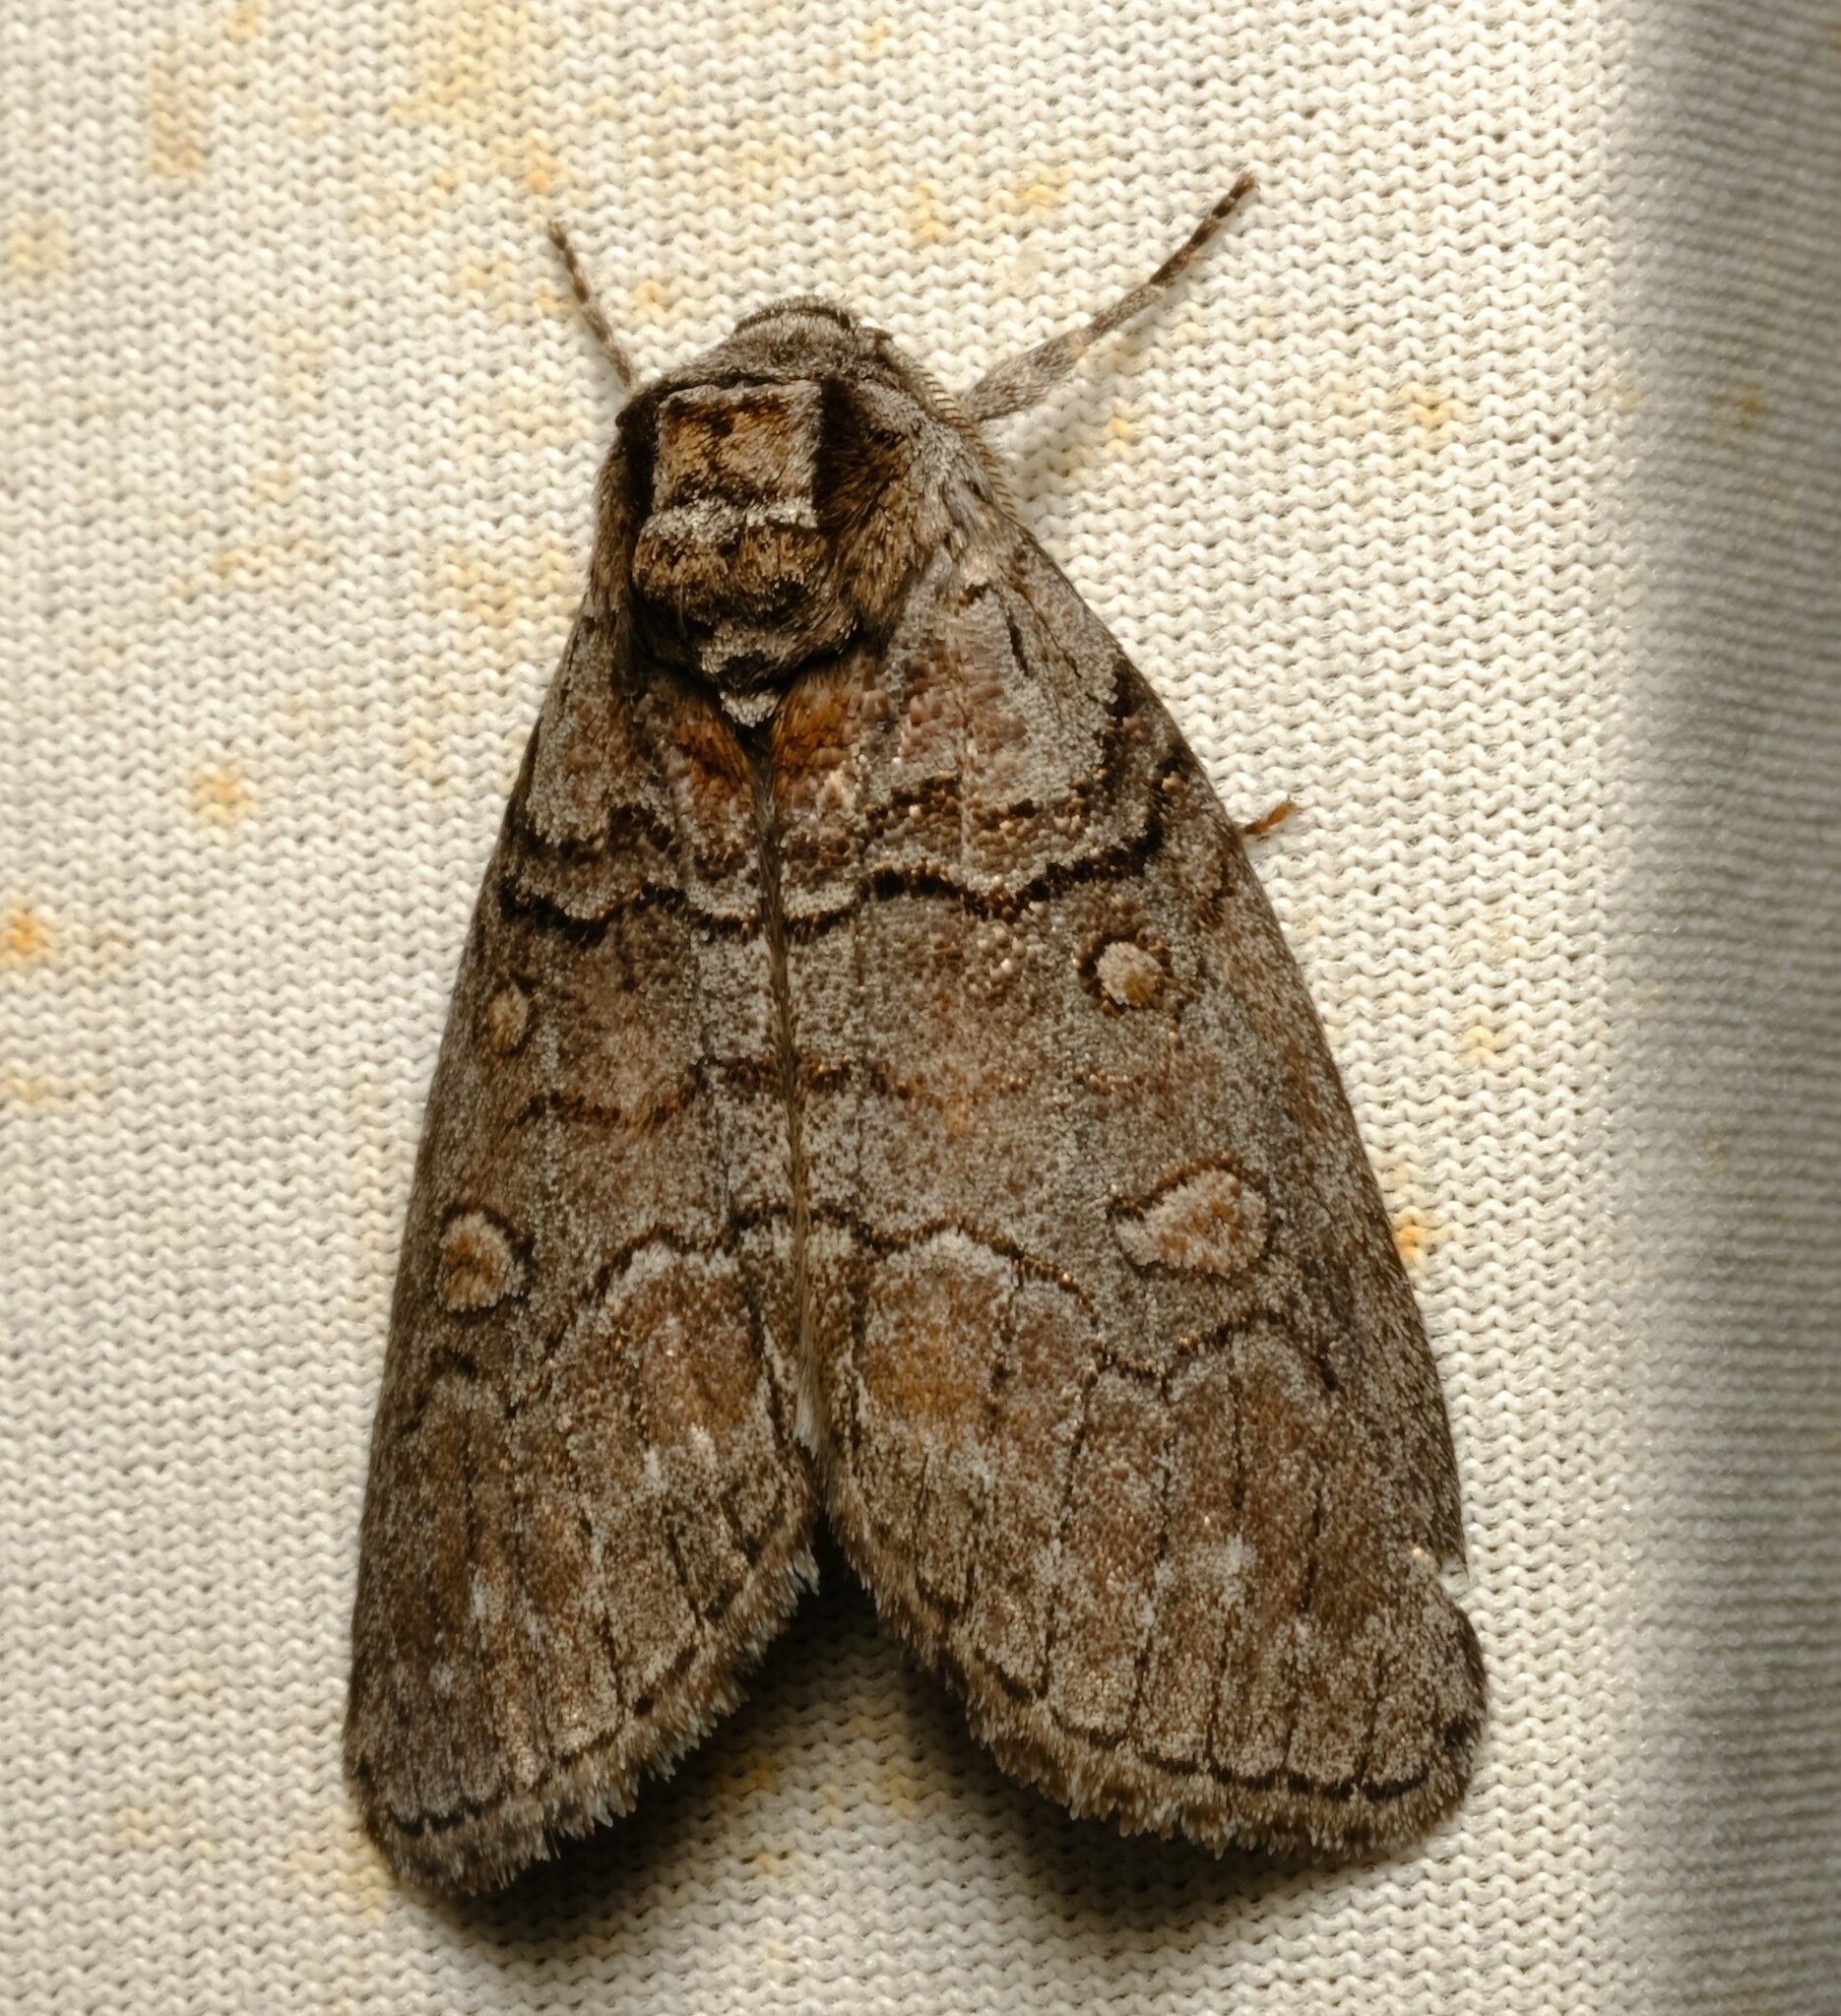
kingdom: Animalia
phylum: Arthropoda
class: Insecta
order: Lepidoptera
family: Oenosandridae
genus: Discophlebia
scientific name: Discophlebia celaena
